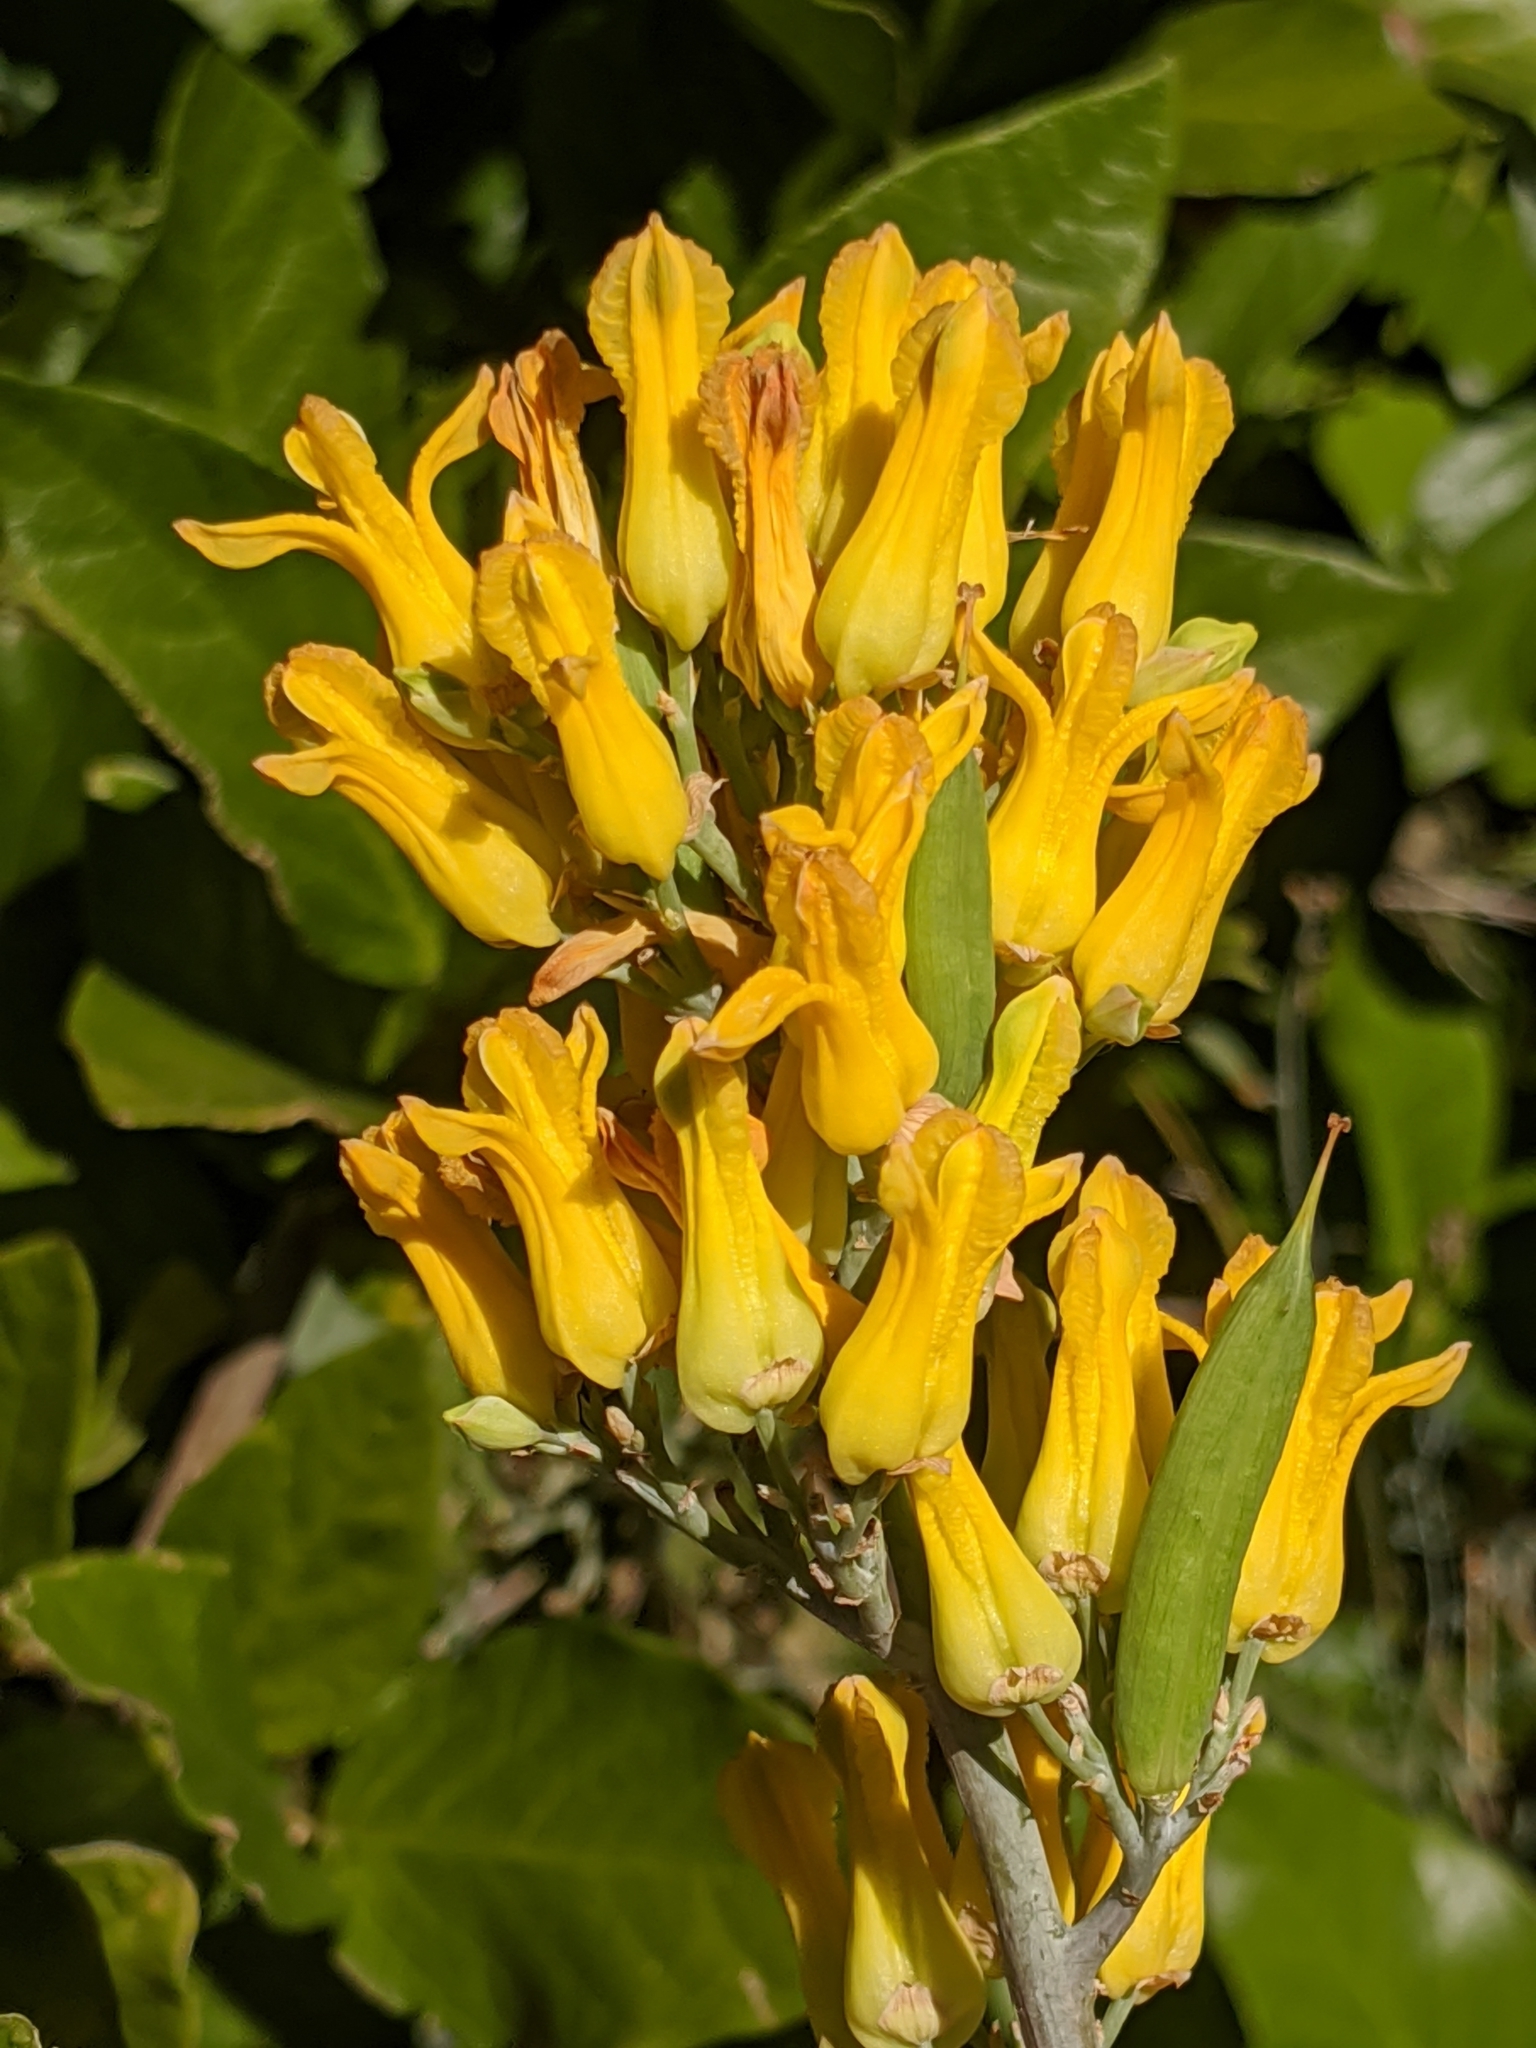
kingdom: Plantae
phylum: Tracheophyta
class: Magnoliopsida
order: Ranunculales
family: Papaveraceae
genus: Ehrendorferia
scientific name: Ehrendorferia chrysantha
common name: Golden eardrops
